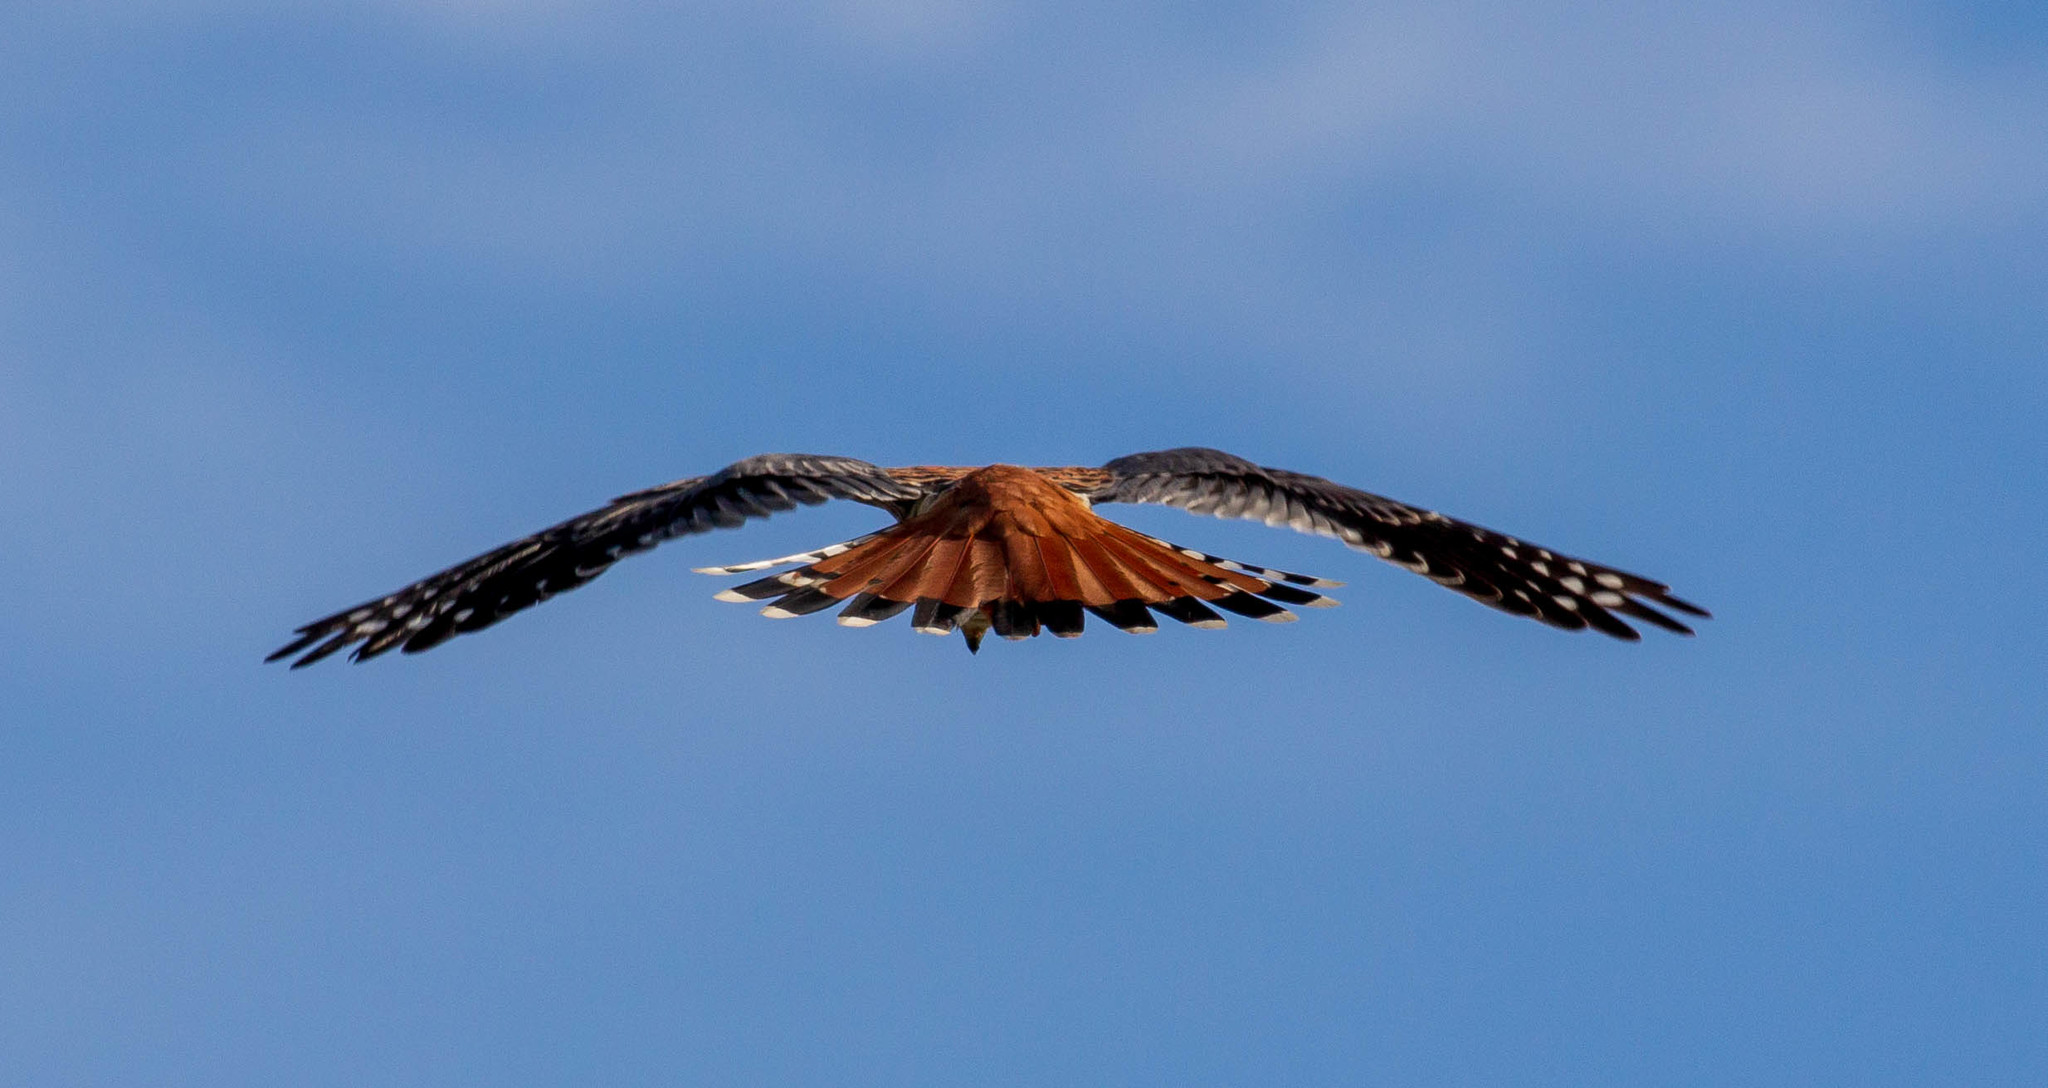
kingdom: Animalia
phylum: Chordata
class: Aves
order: Falconiformes
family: Falconidae
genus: Falco
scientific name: Falco sparverius
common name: American kestrel
